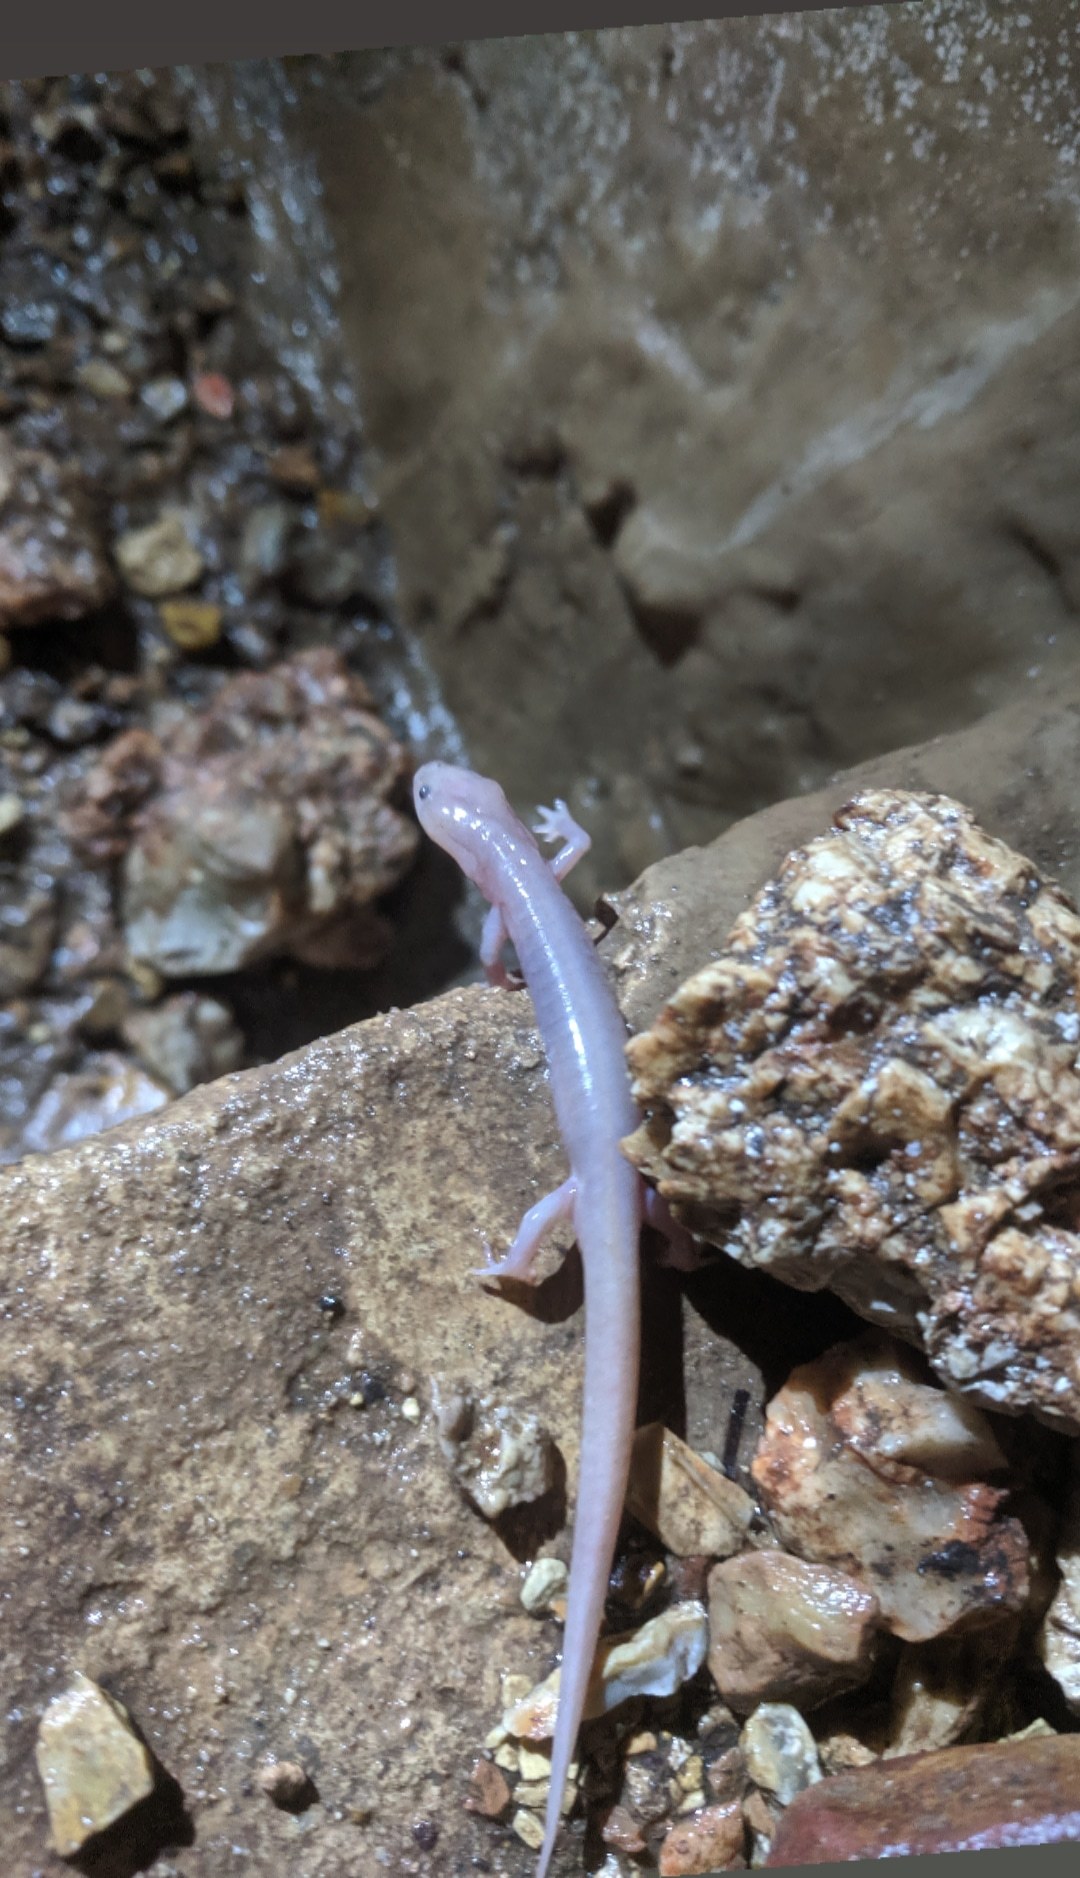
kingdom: Animalia
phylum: Chordata
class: Amphibia
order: Caudata
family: Plethodontidae
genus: Eurycea
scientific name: Eurycea nerea
